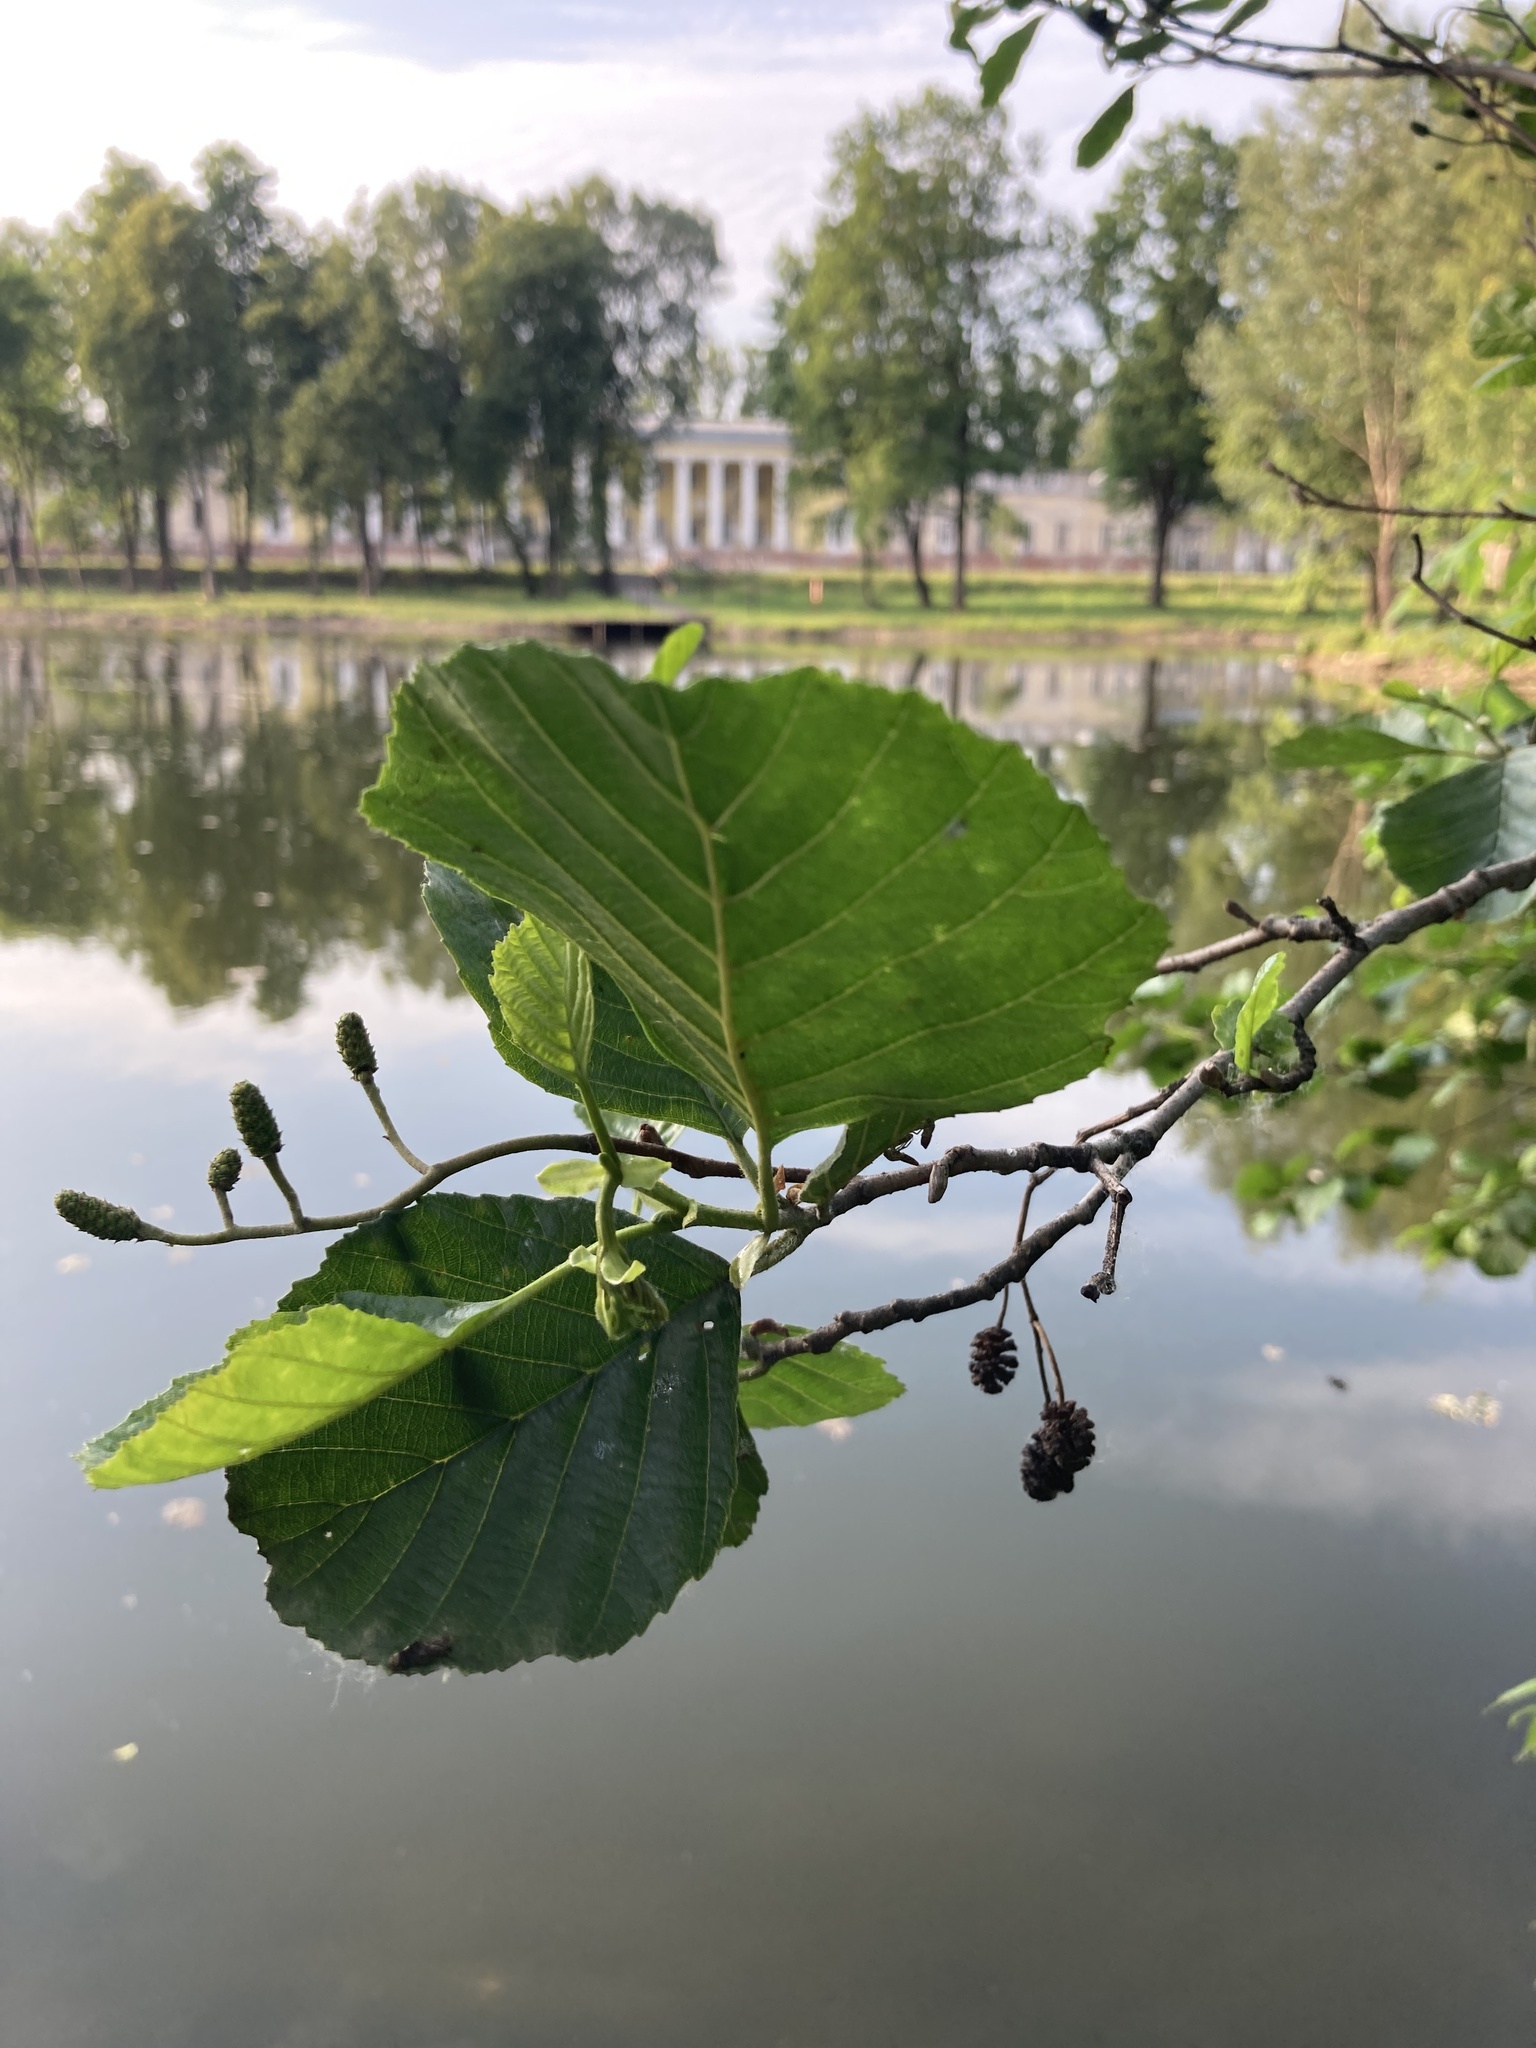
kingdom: Plantae
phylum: Tracheophyta
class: Magnoliopsida
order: Fagales
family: Betulaceae
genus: Alnus
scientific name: Alnus glutinosa
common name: Black alder
